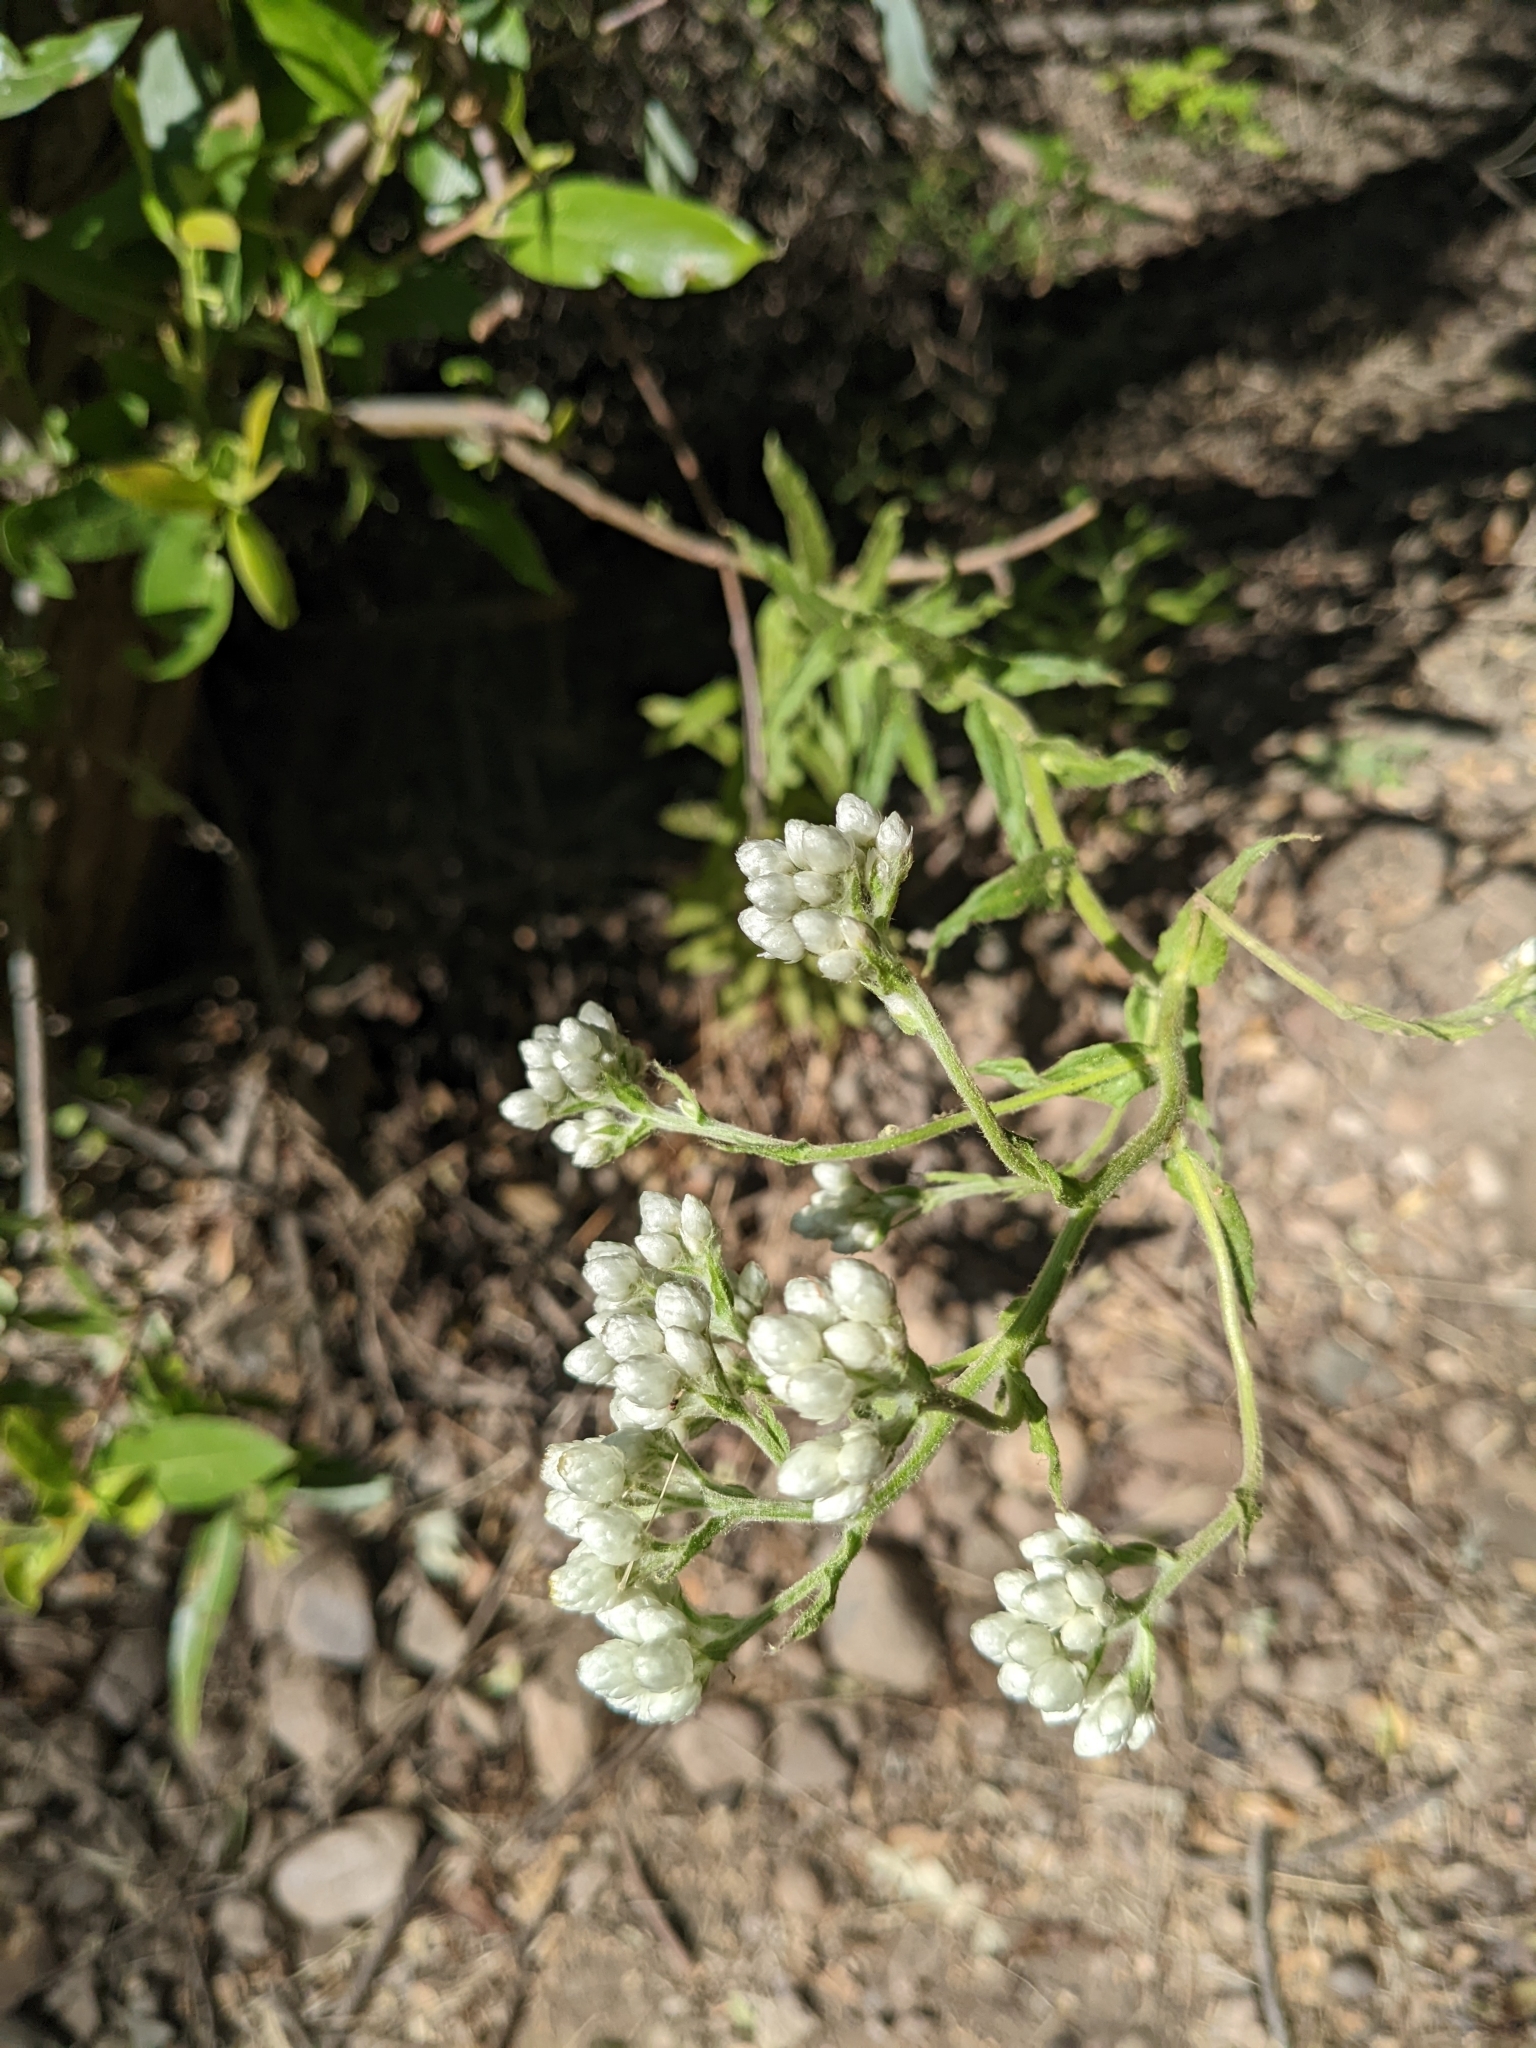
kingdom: Plantae
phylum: Tracheophyta
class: Magnoliopsida
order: Asterales
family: Asteraceae
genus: Pseudognaphalium
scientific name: Pseudognaphalium californicum
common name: California rabbit-tobacco
